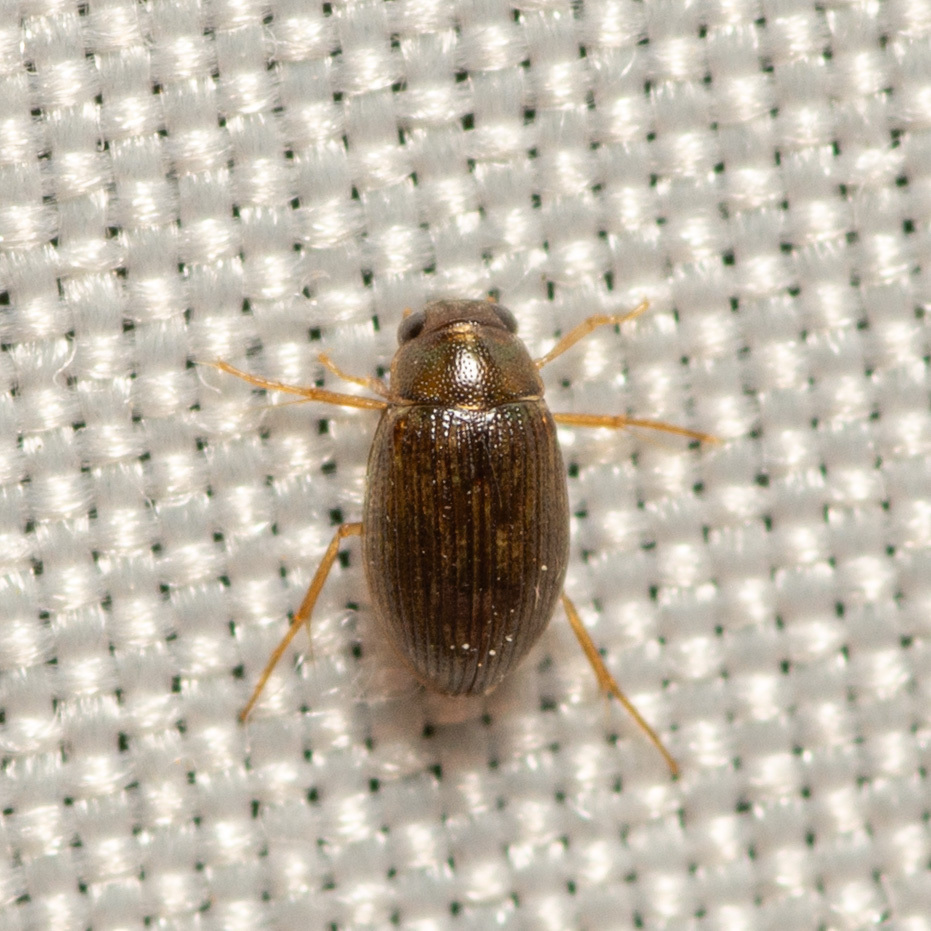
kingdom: Animalia
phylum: Arthropoda
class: Insecta
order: Coleoptera
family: Hydrophilidae
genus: Berosus
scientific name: Berosus
